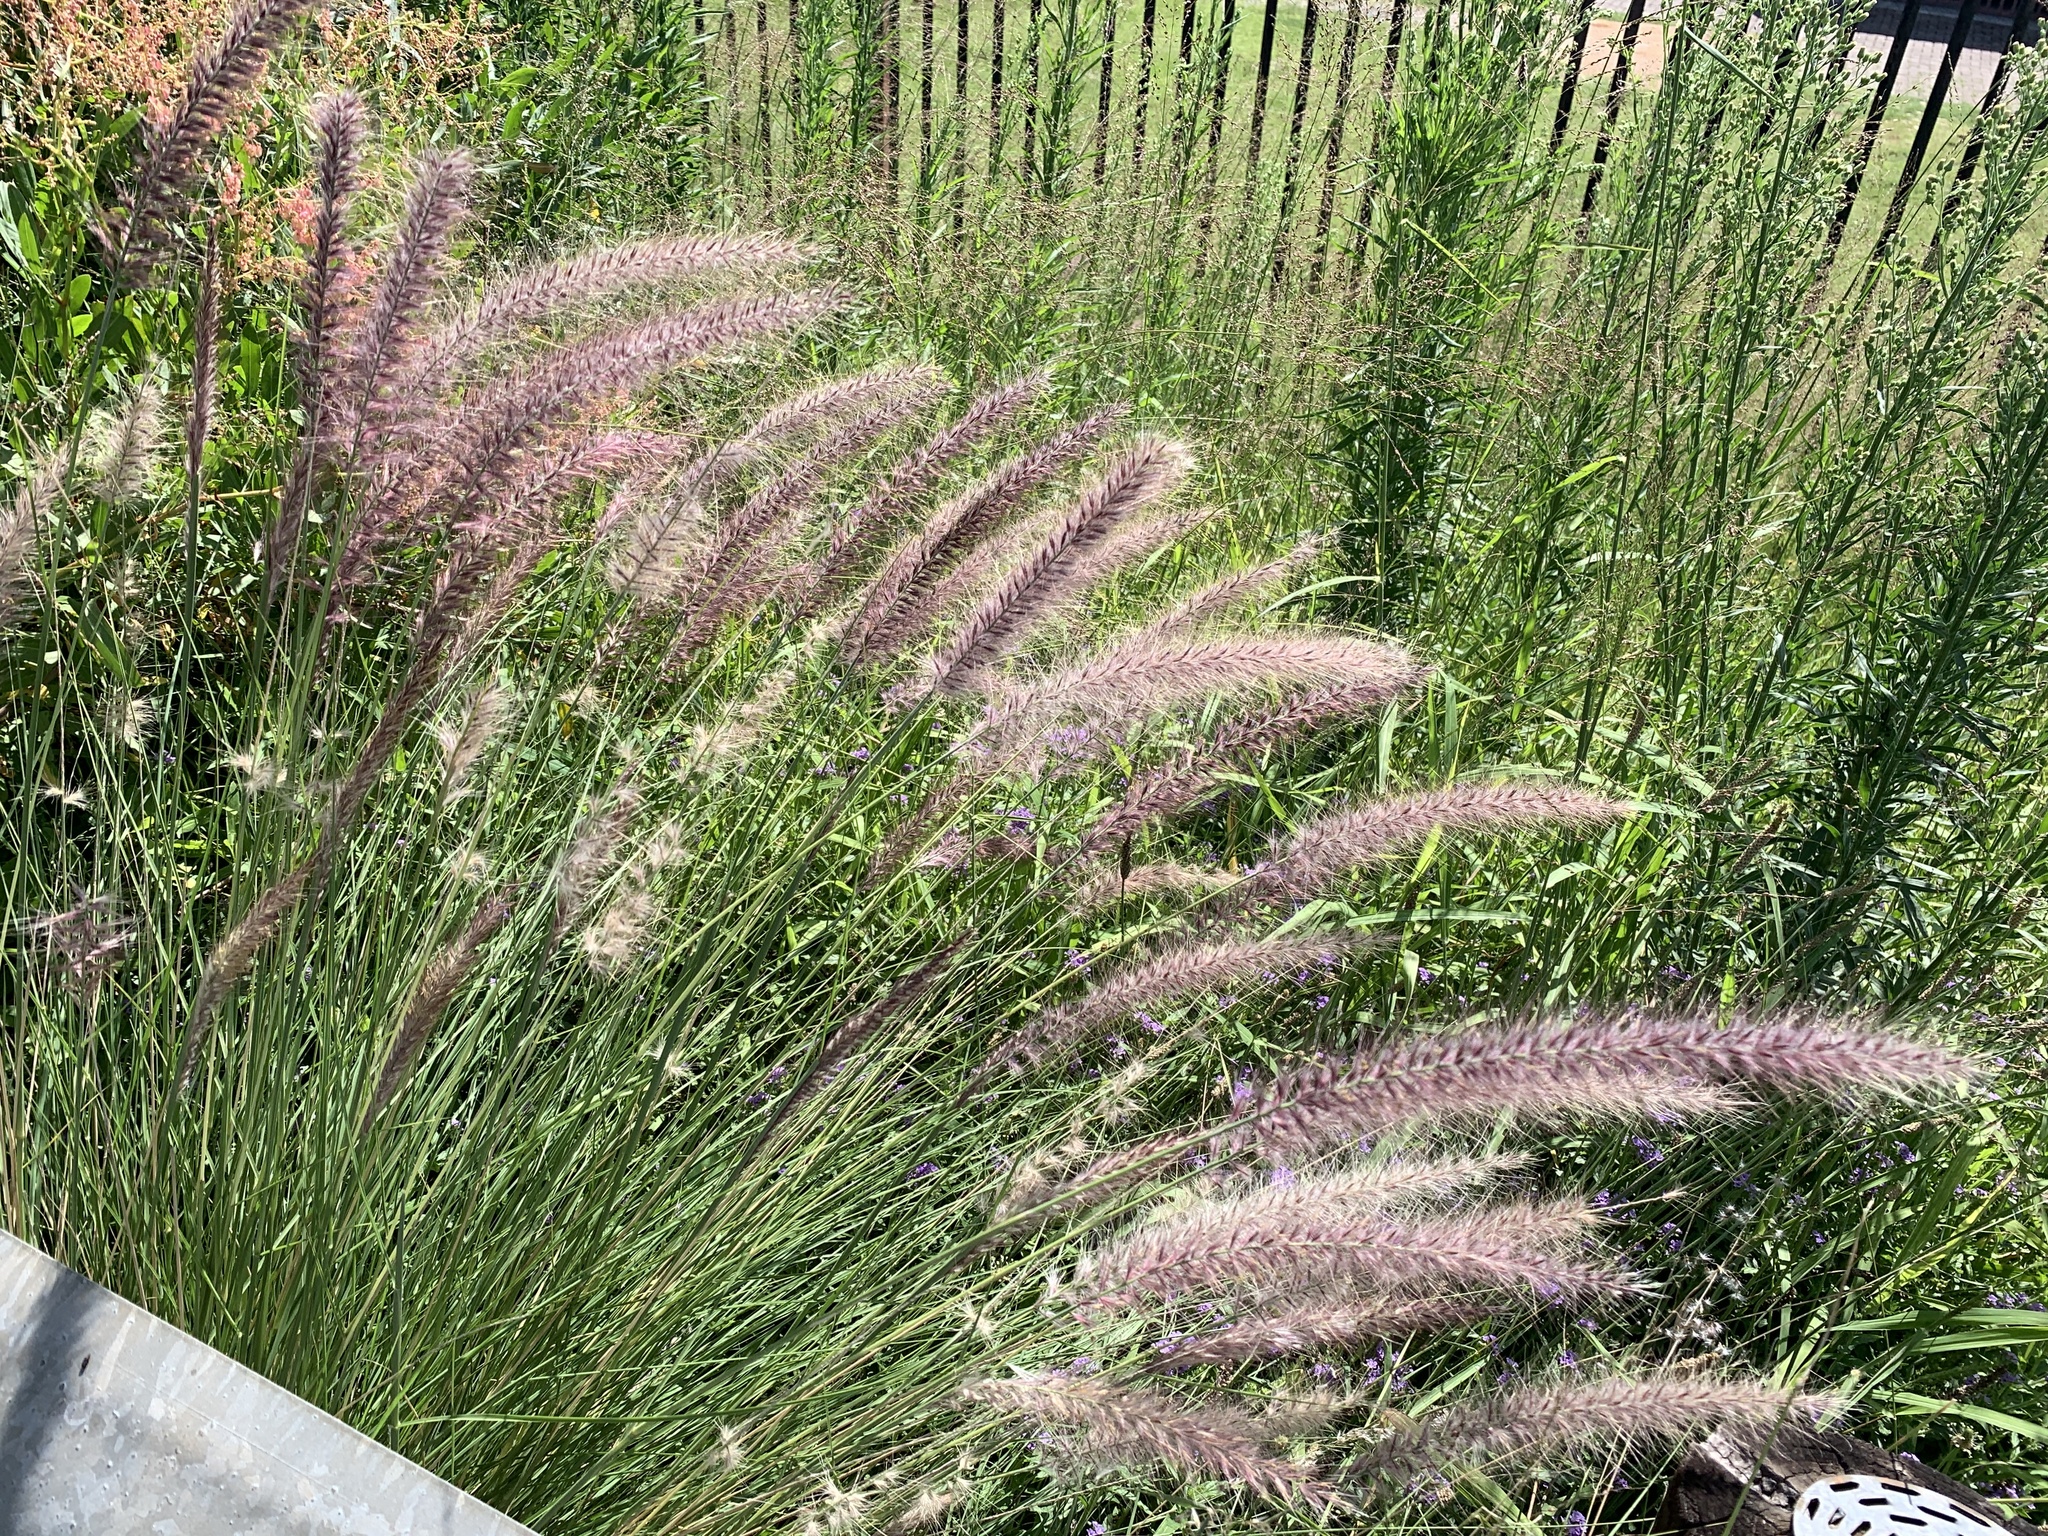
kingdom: Plantae
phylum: Tracheophyta
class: Liliopsida
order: Poales
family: Poaceae
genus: Cenchrus
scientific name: Cenchrus setaceus
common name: Crimson fountaingrass
